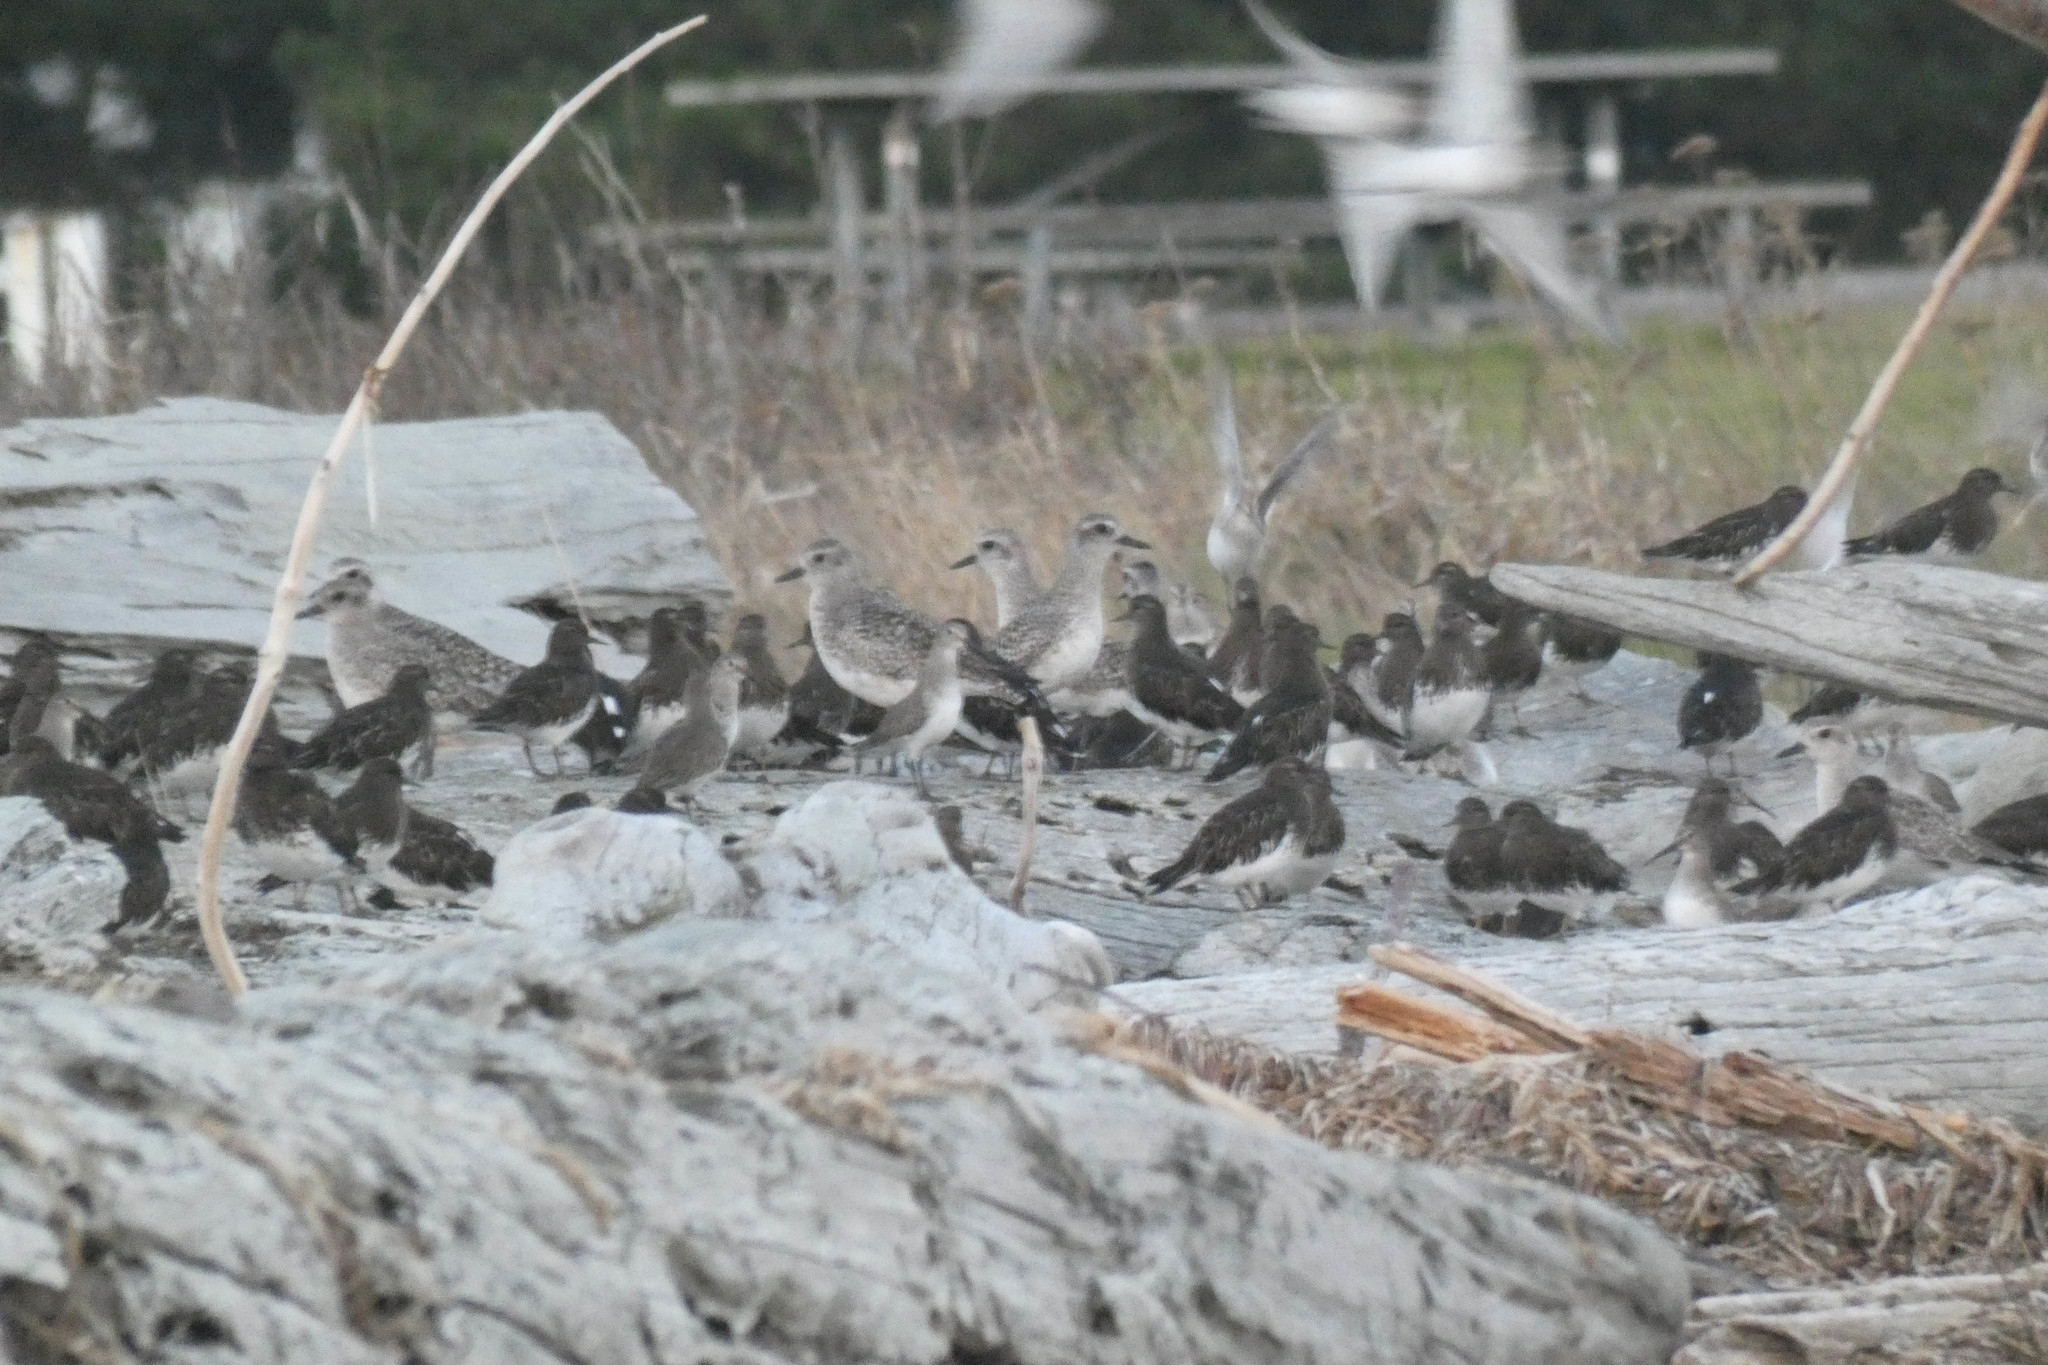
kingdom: Animalia
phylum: Chordata
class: Aves
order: Charadriiformes
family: Charadriidae
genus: Pluvialis
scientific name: Pluvialis squatarola
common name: Grey plover
